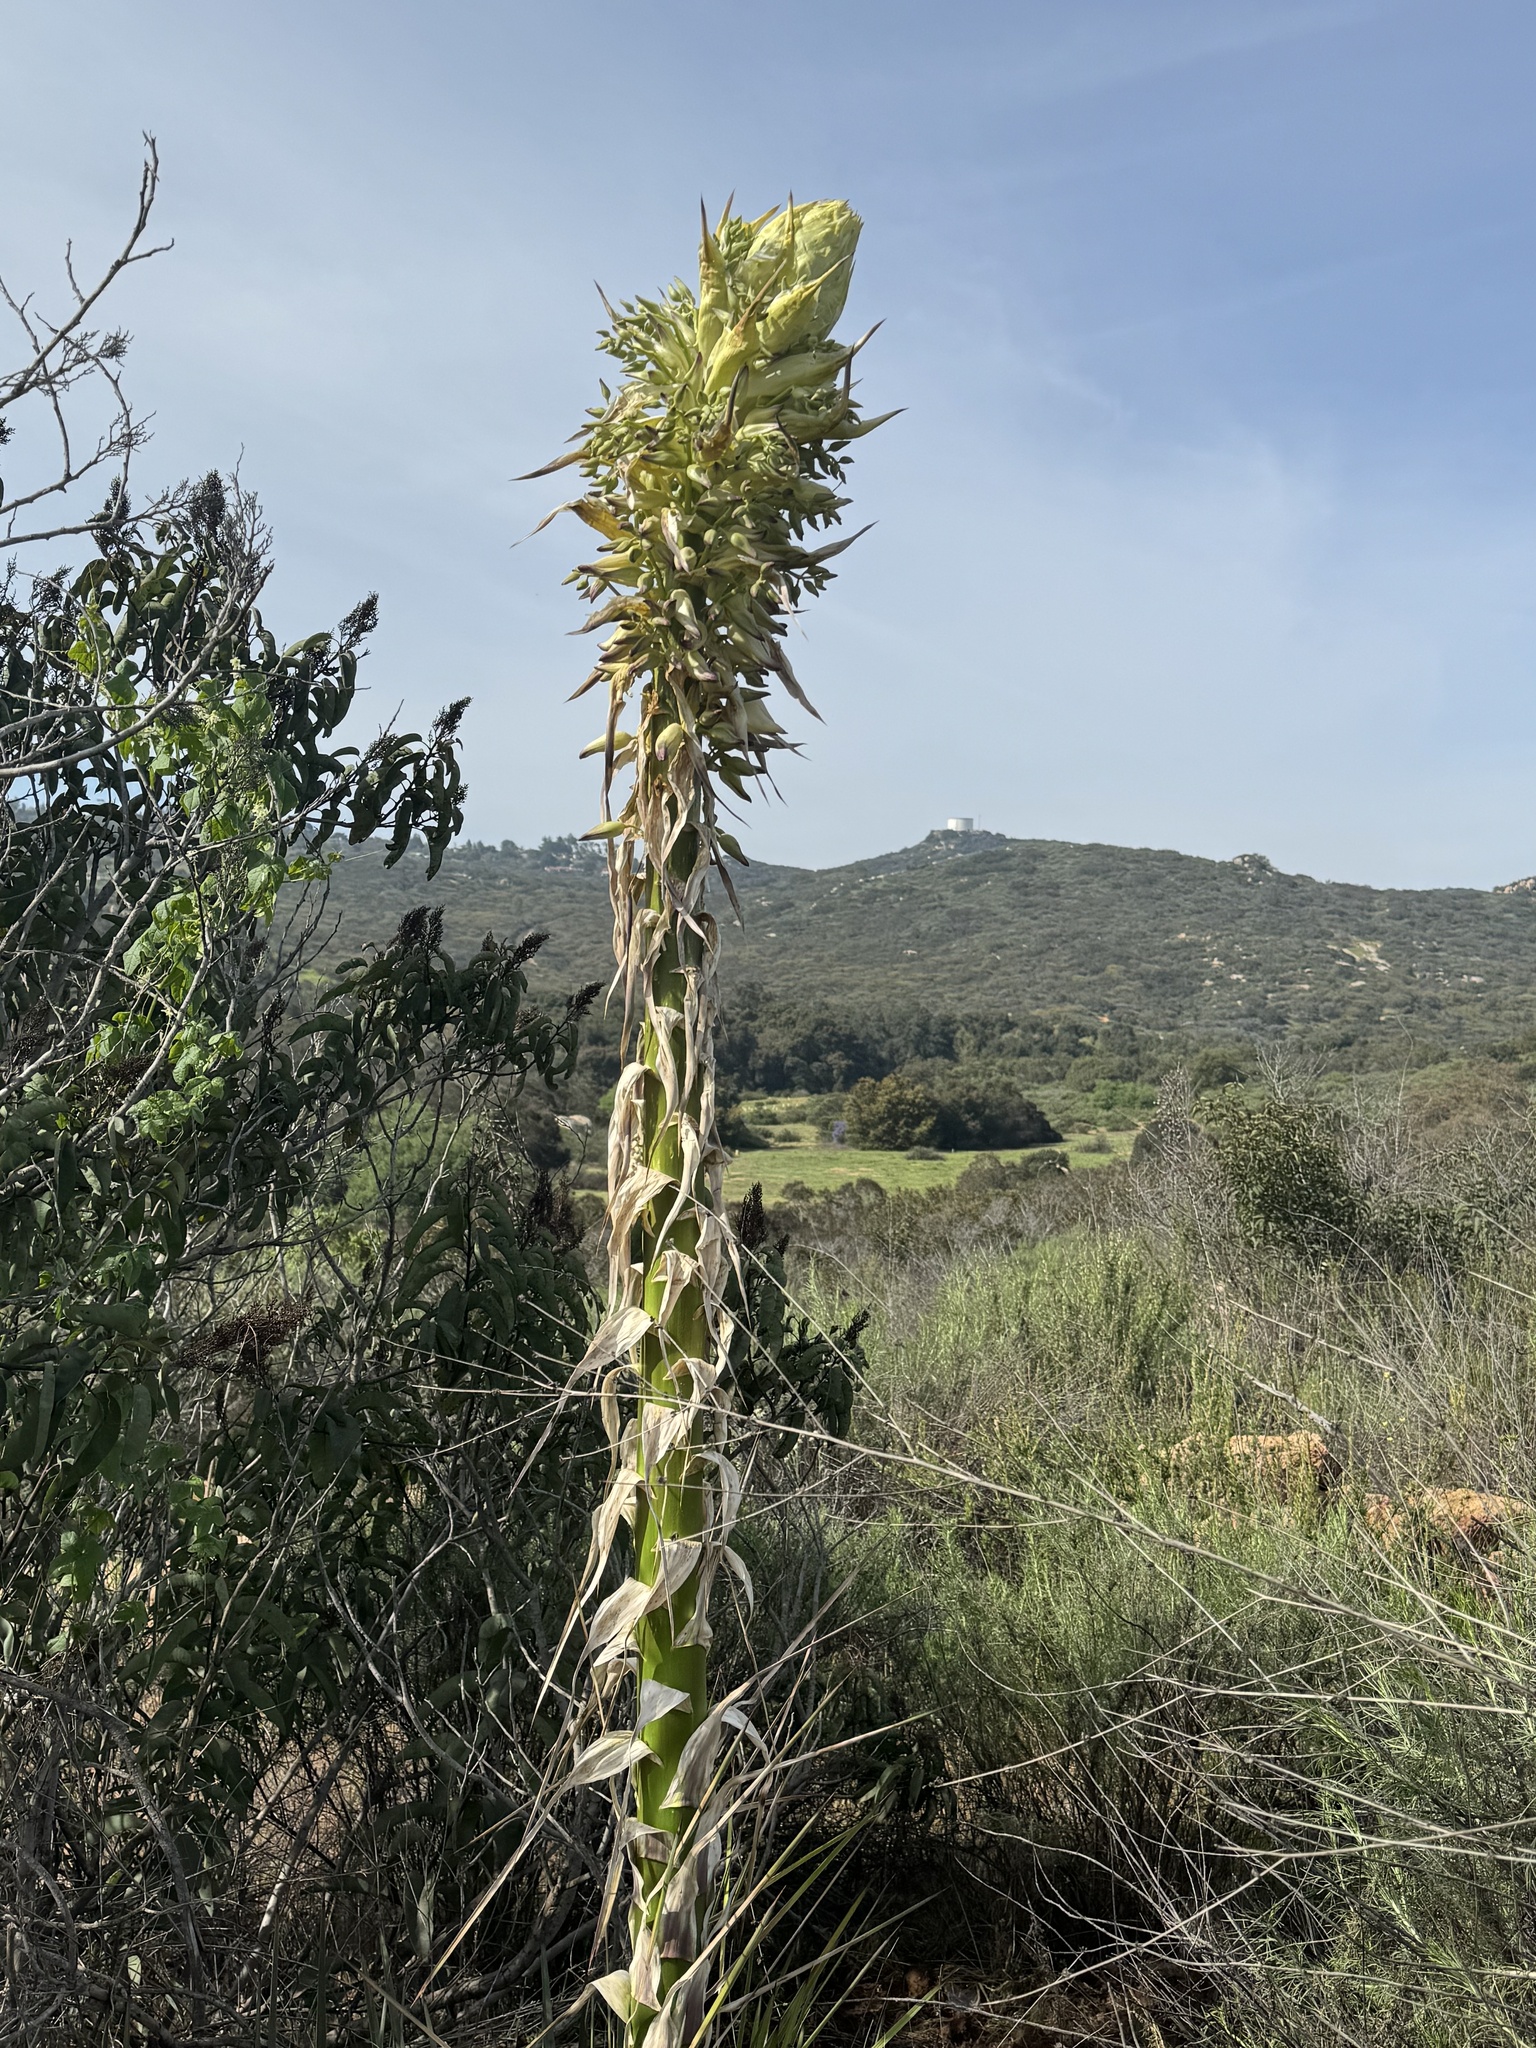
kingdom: Plantae
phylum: Tracheophyta
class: Liliopsida
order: Asparagales
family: Asparagaceae
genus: Hesperoyucca
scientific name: Hesperoyucca whipplei
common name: Our lord's-candle
